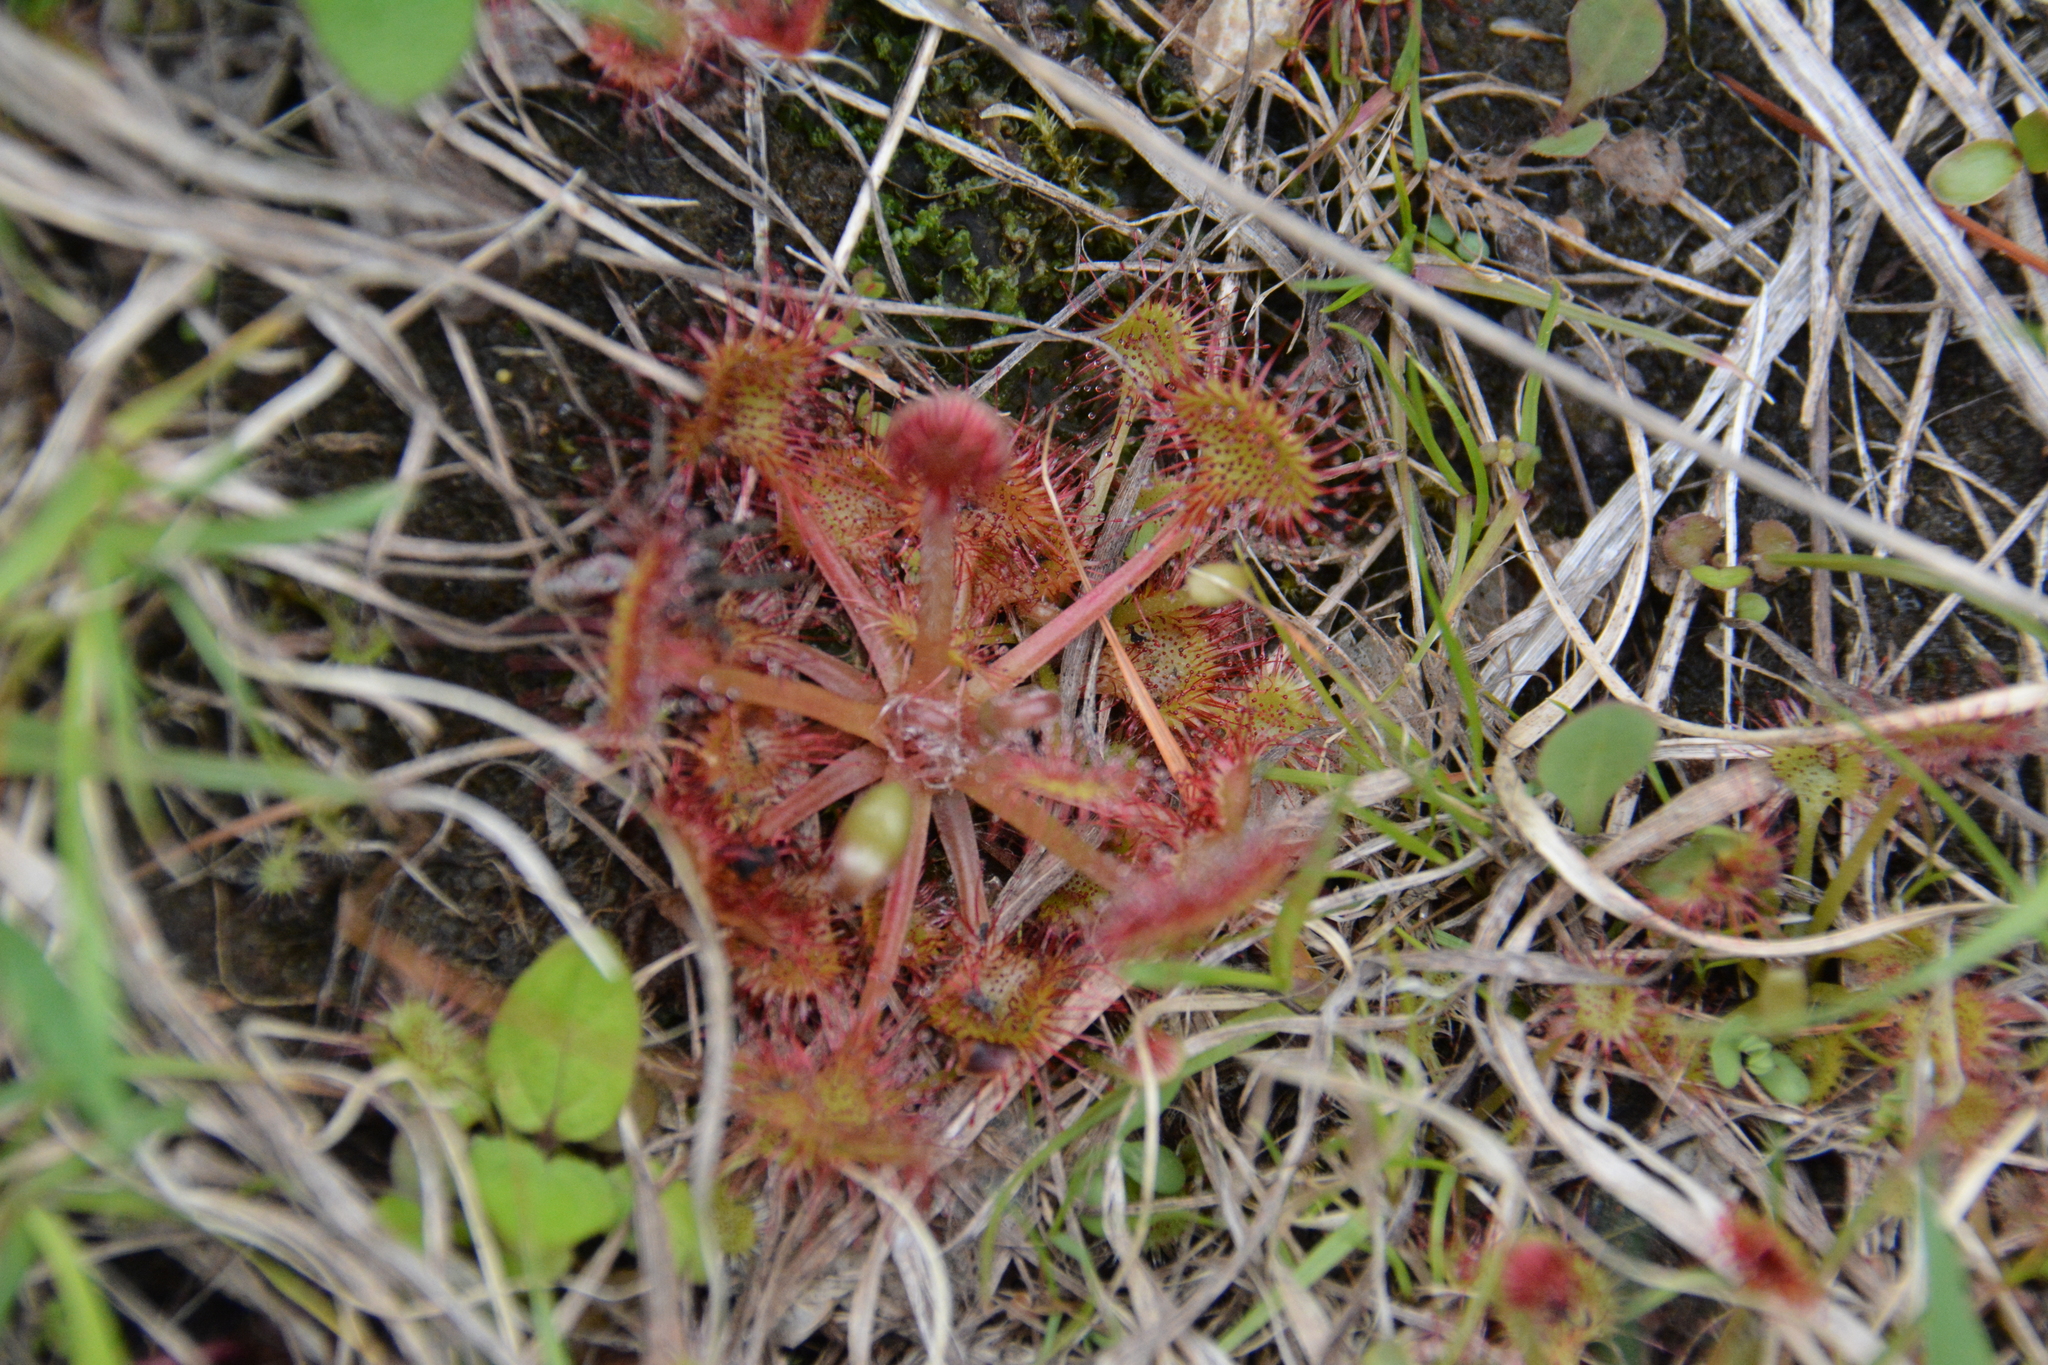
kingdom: Plantae
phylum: Tracheophyta
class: Magnoliopsida
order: Caryophyllales
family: Droseraceae
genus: Drosera
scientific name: Drosera rotundifolia
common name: Round-leaved sundew
